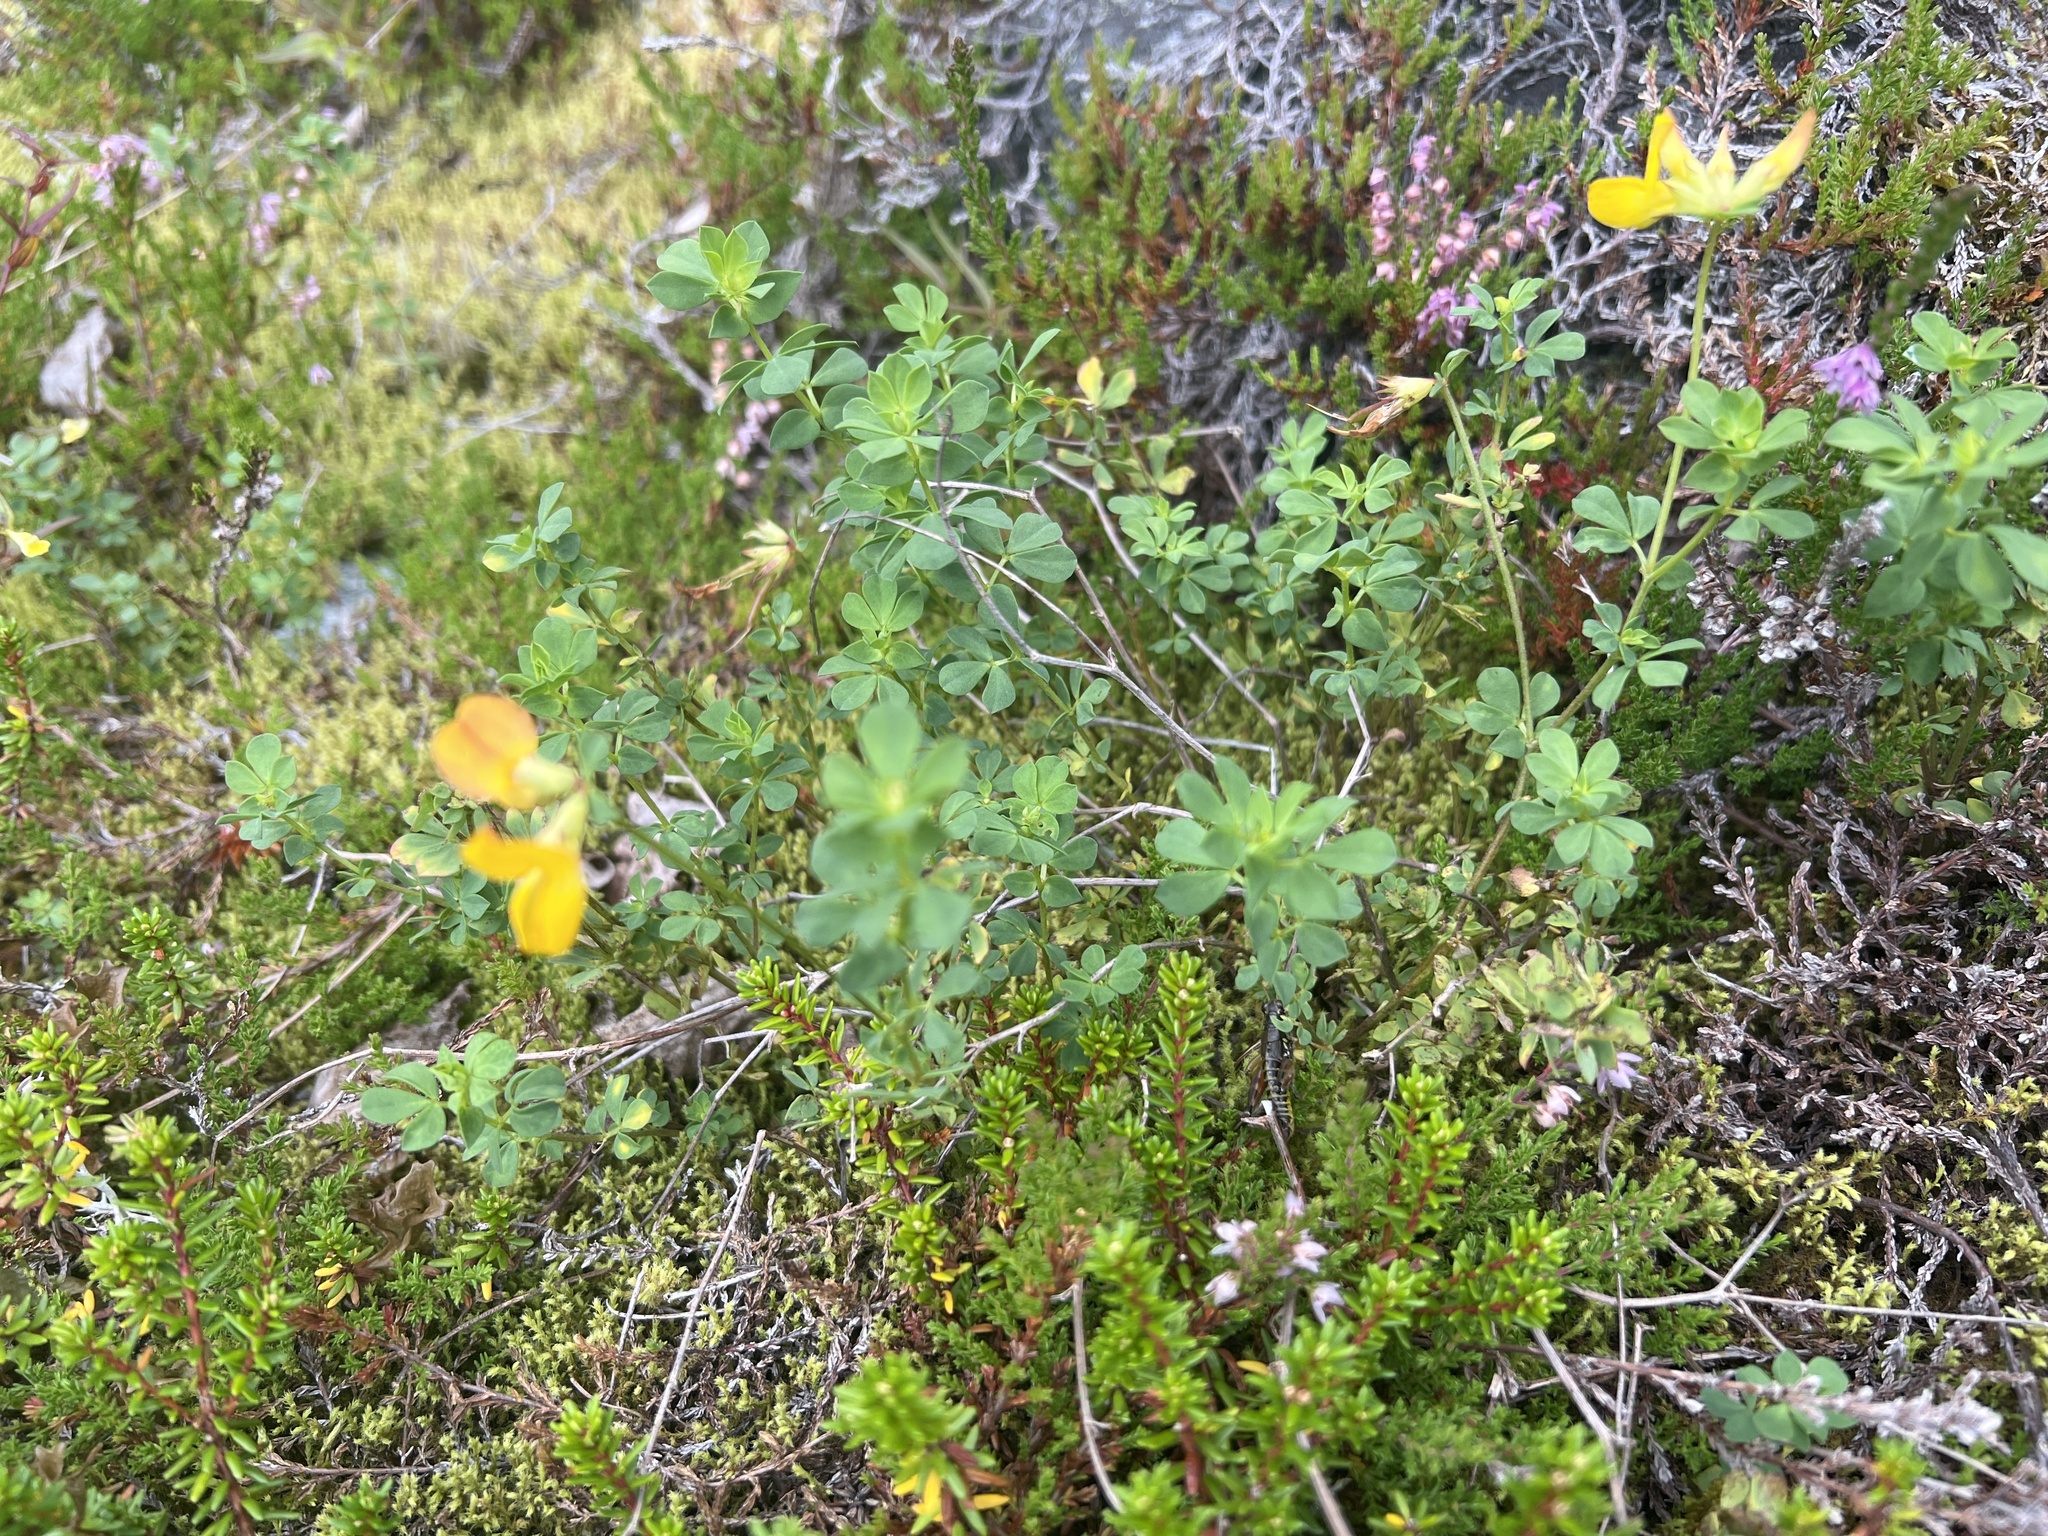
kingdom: Plantae
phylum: Tracheophyta
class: Magnoliopsida
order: Fabales
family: Fabaceae
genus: Lotus
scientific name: Lotus corniculatus
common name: Common bird's-foot-trefoil
